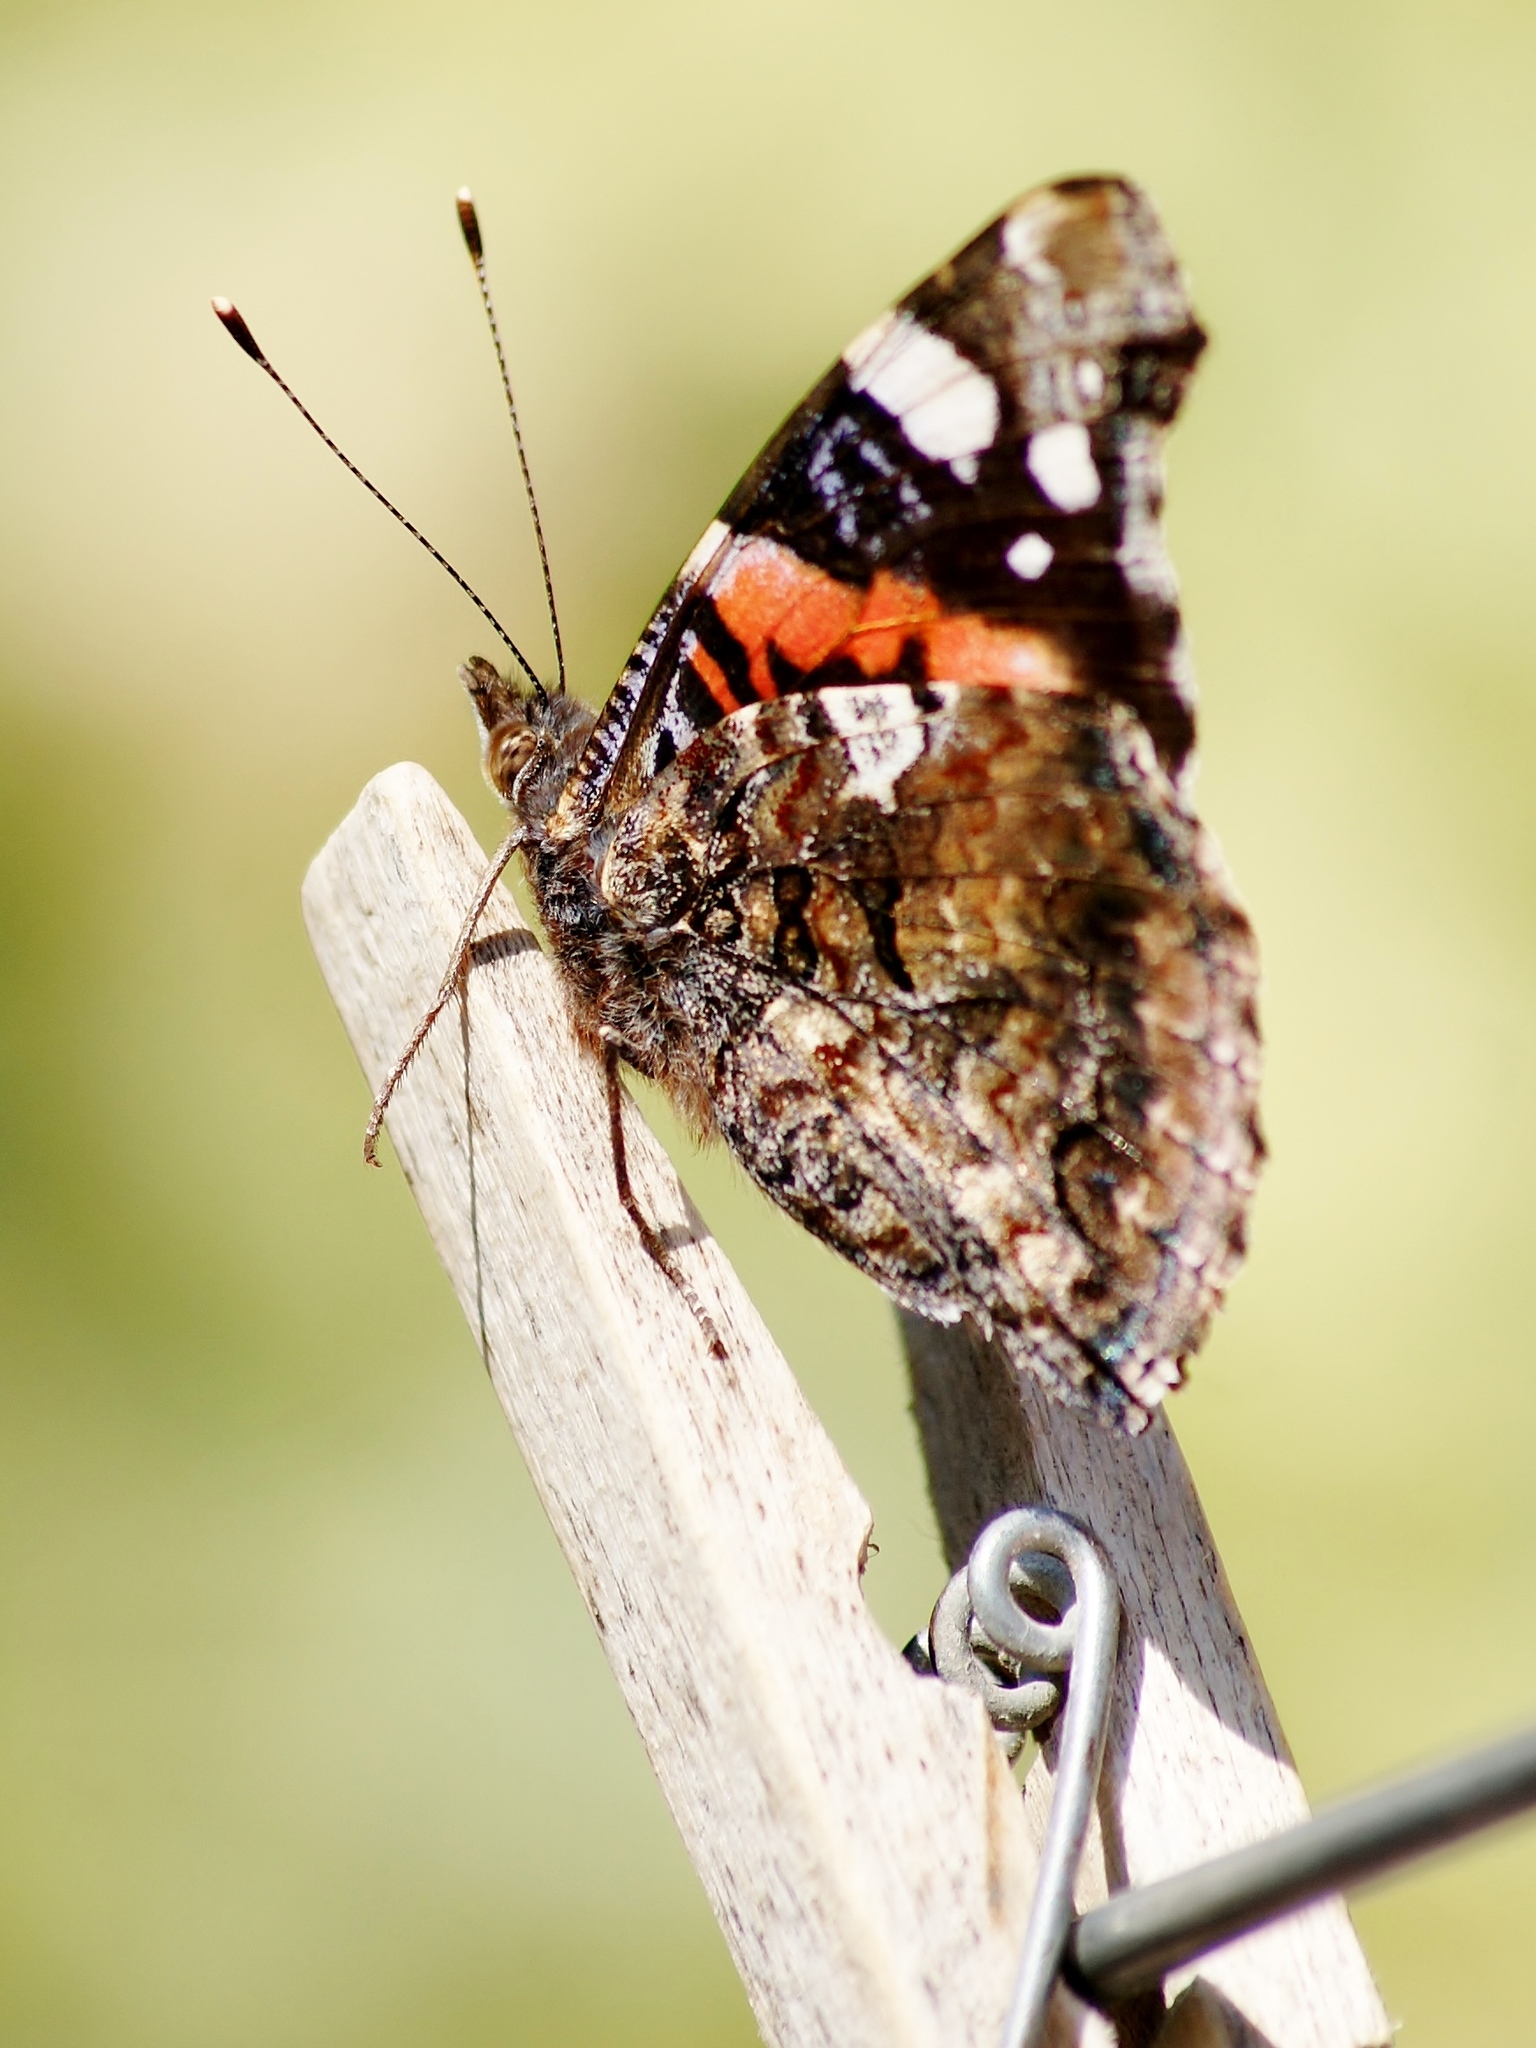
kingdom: Animalia
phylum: Arthropoda
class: Insecta
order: Lepidoptera
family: Nymphalidae
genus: Vanessa
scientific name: Vanessa atalanta
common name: Red admiral
